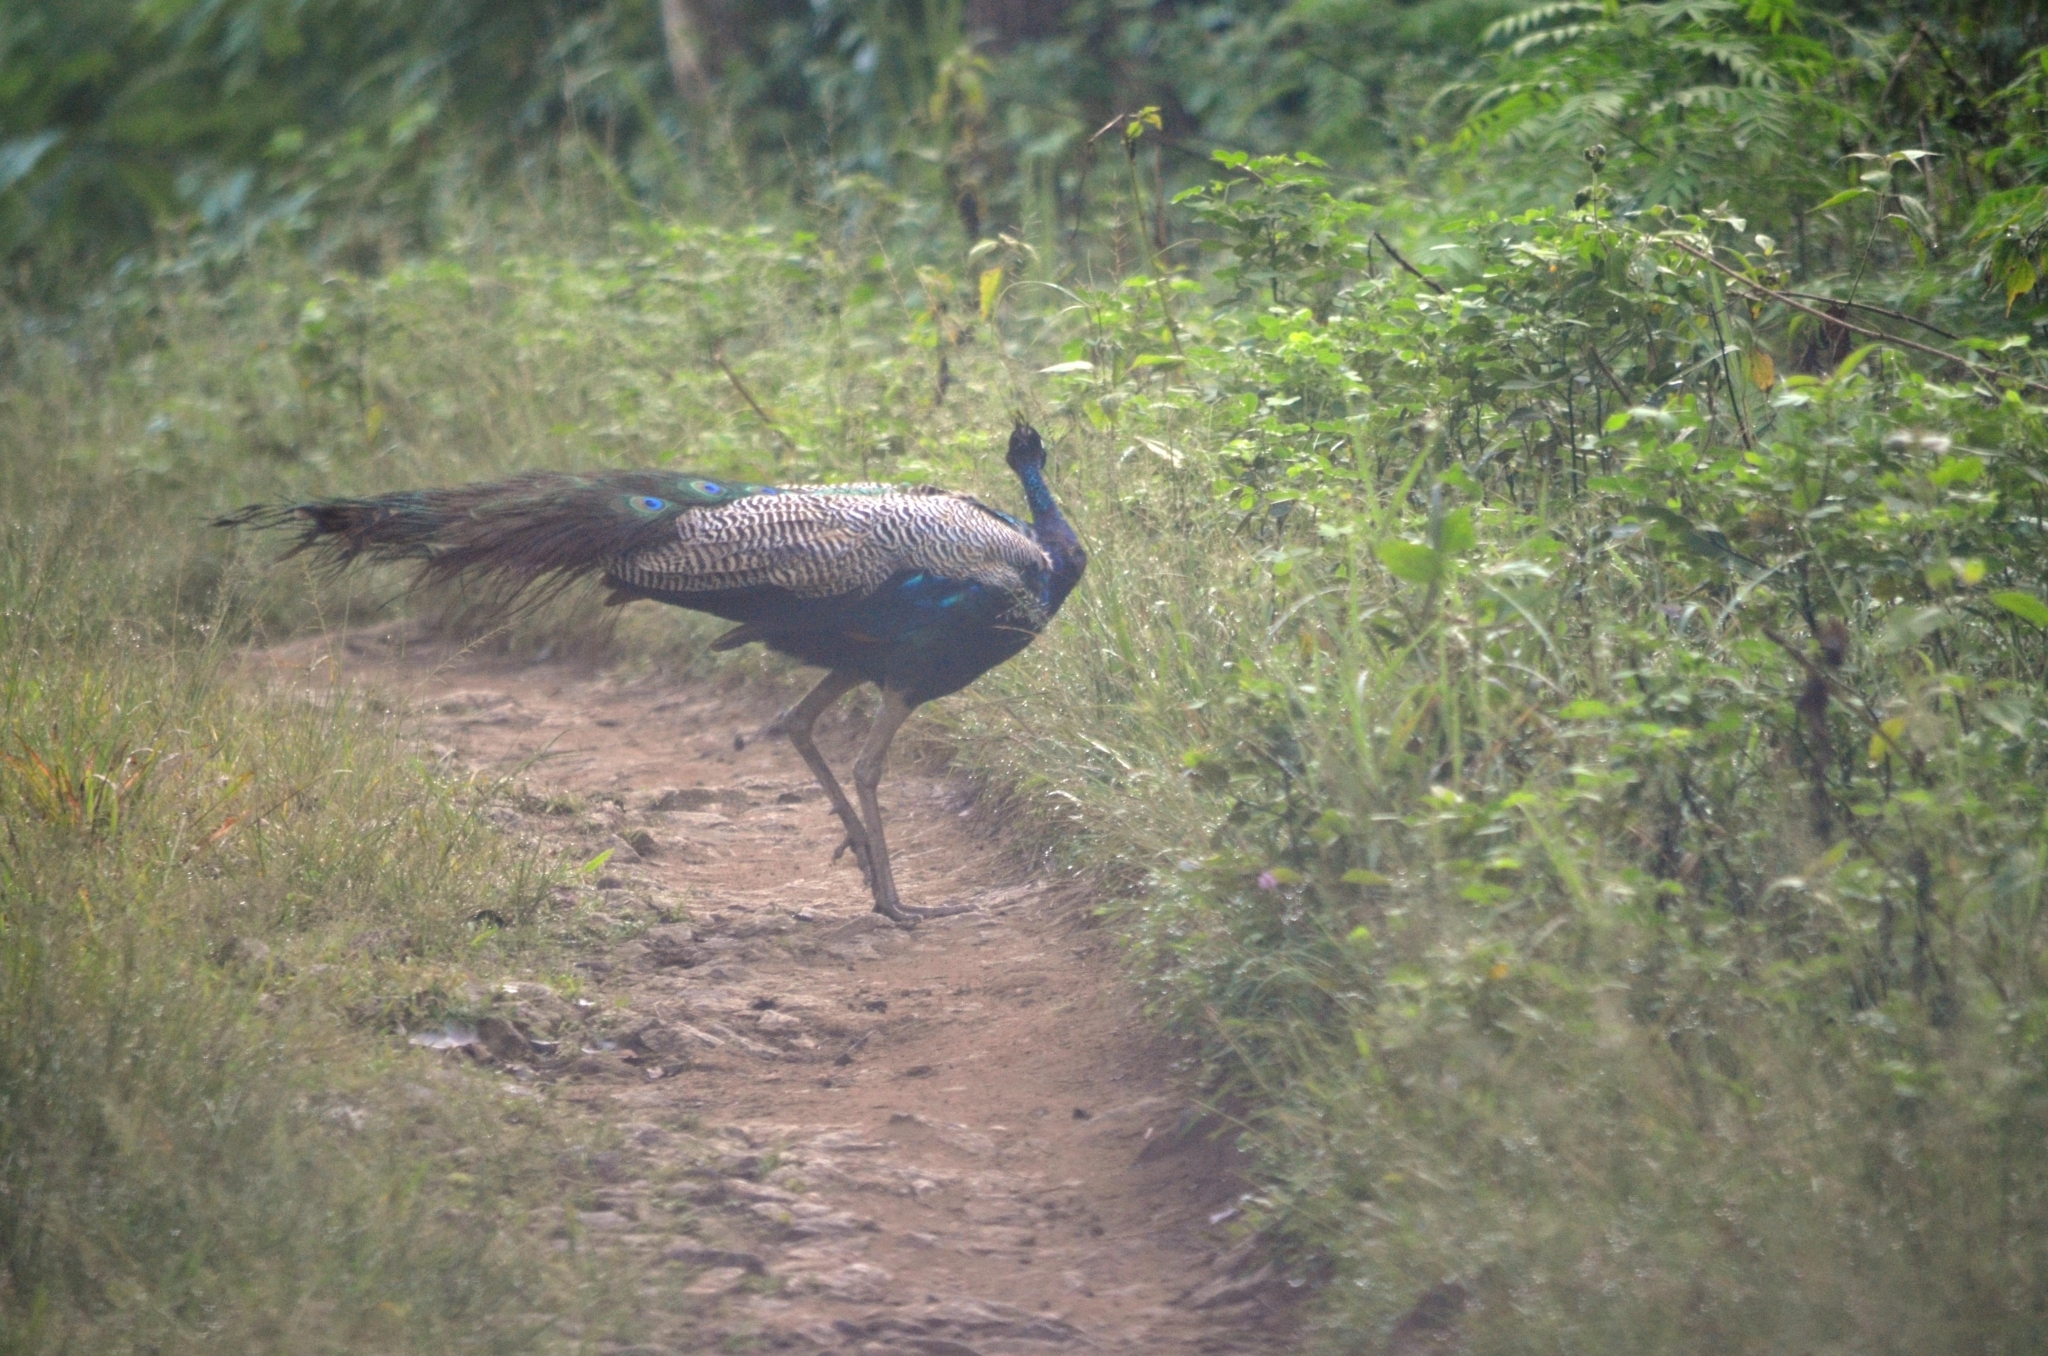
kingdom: Animalia
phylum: Chordata
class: Aves
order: Galliformes
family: Phasianidae
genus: Pavo
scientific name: Pavo cristatus
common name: Indian peafowl
